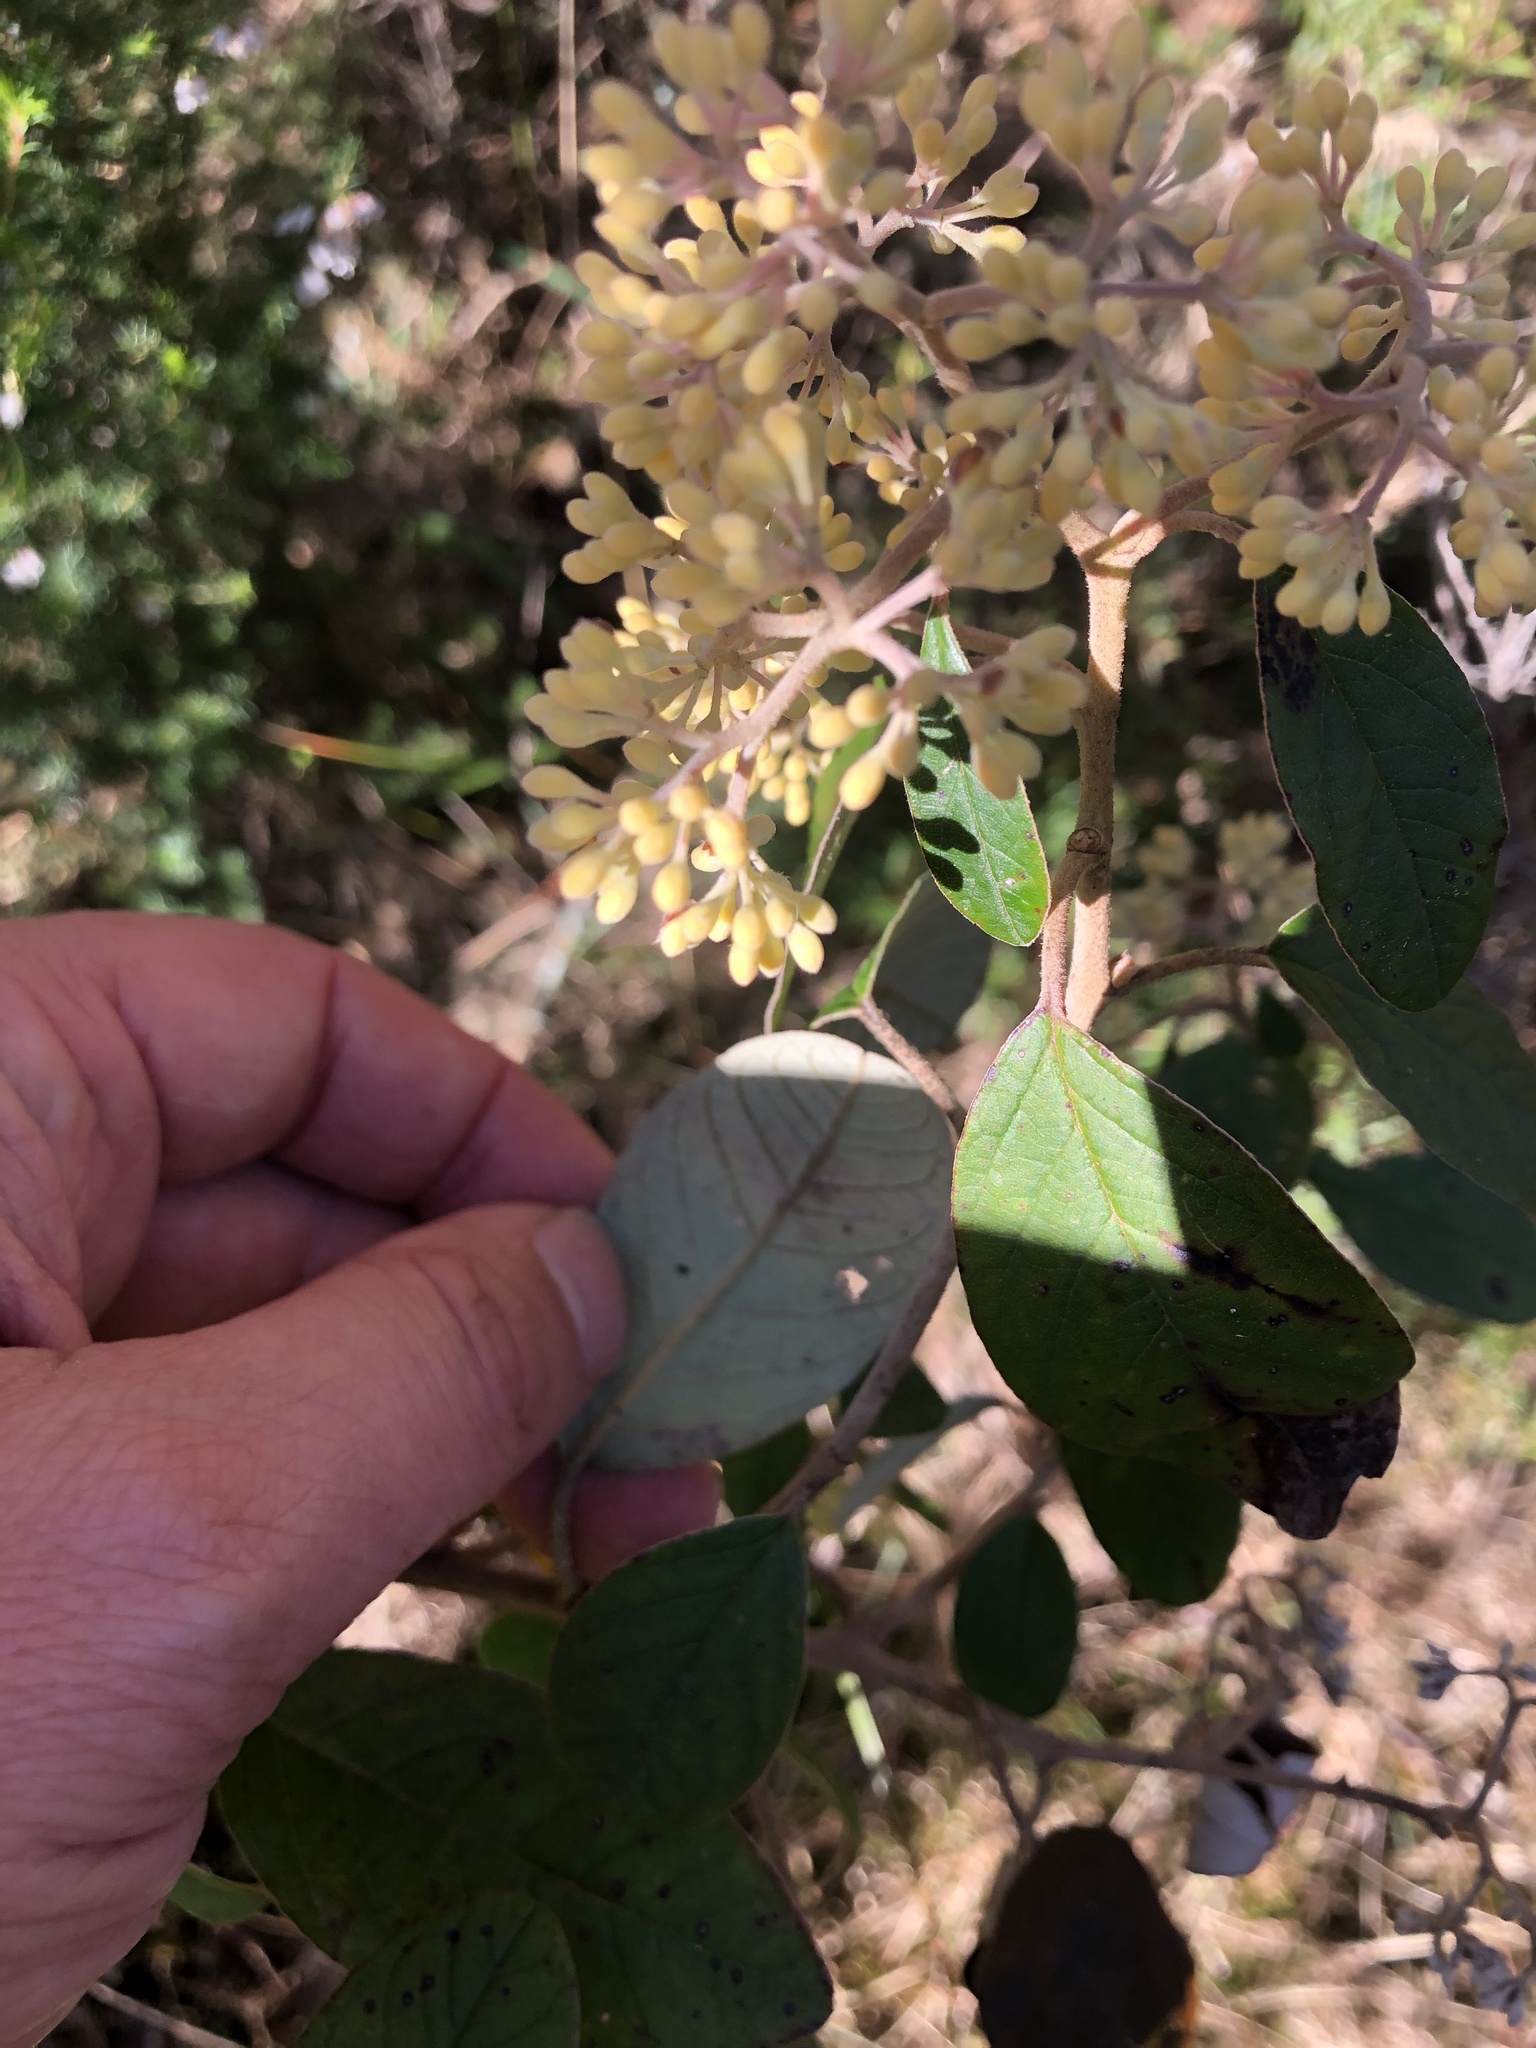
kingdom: Plantae
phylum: Tracheophyta
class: Magnoliopsida
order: Rosales
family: Rhamnaceae
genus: Pomaderris
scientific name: Pomaderris kumeraho
